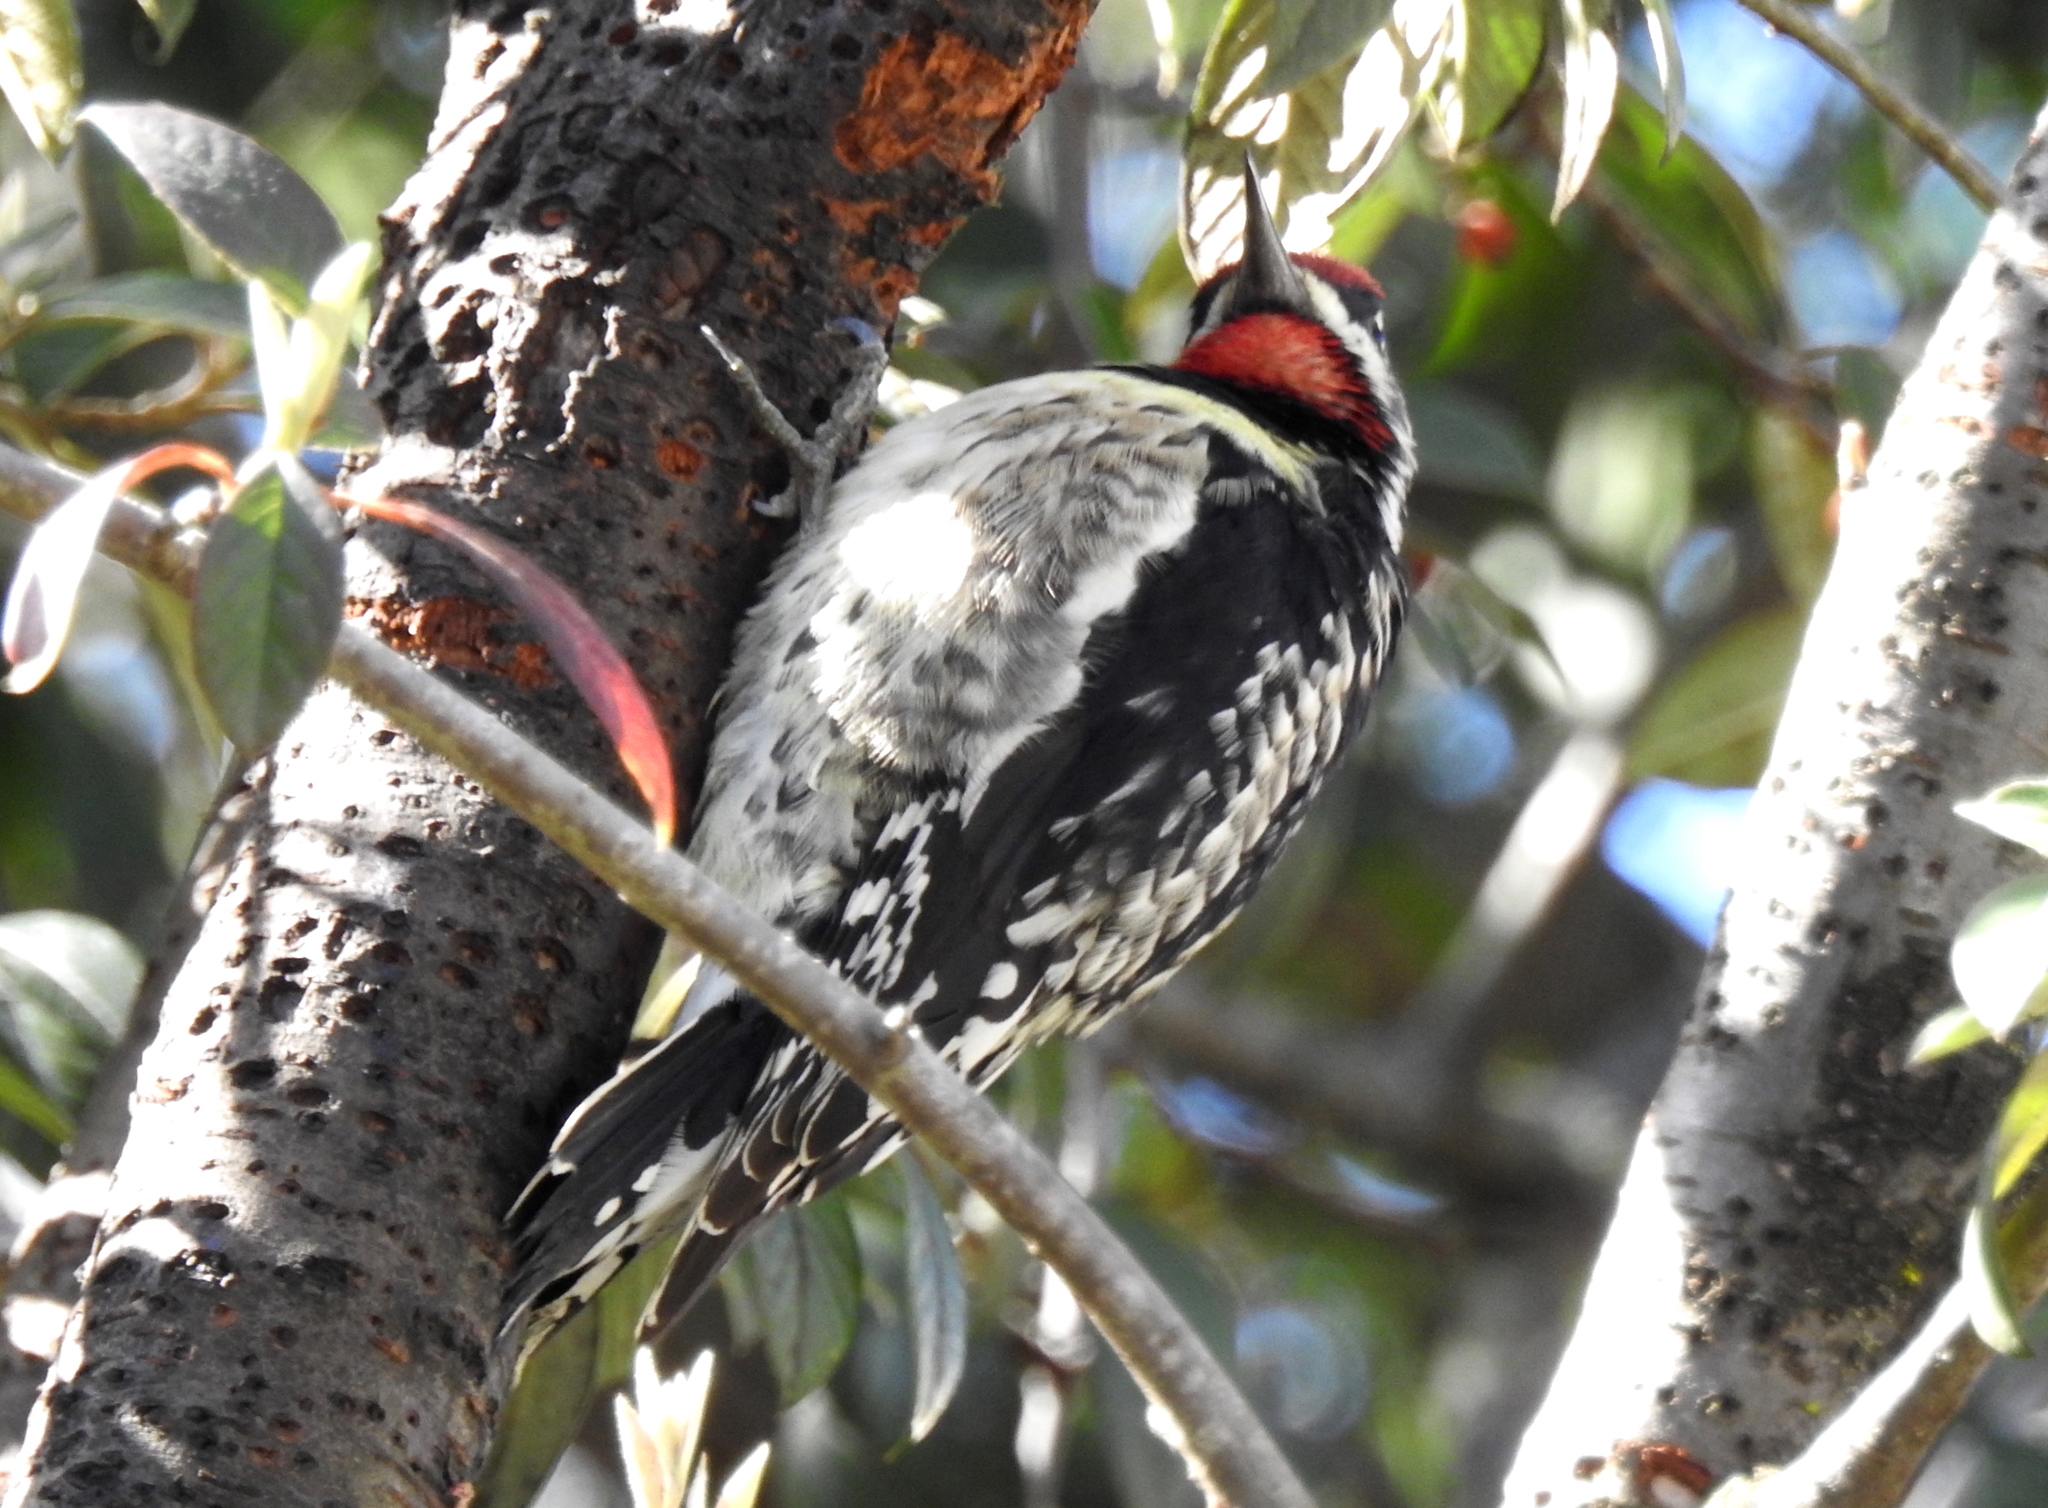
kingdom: Animalia
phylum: Chordata
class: Aves
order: Piciformes
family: Picidae
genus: Sphyrapicus
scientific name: Sphyrapicus varius
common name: Yellow-bellied sapsucker
